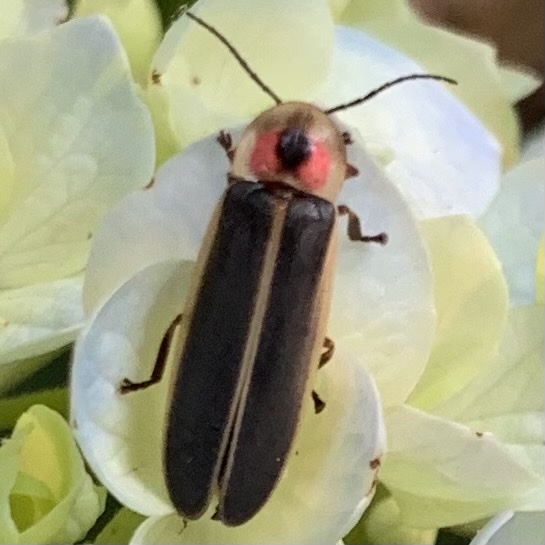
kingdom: Animalia
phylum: Arthropoda
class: Insecta
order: Coleoptera
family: Lampyridae
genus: Photinus
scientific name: Photinus pyralis
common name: Big dipper firefly
